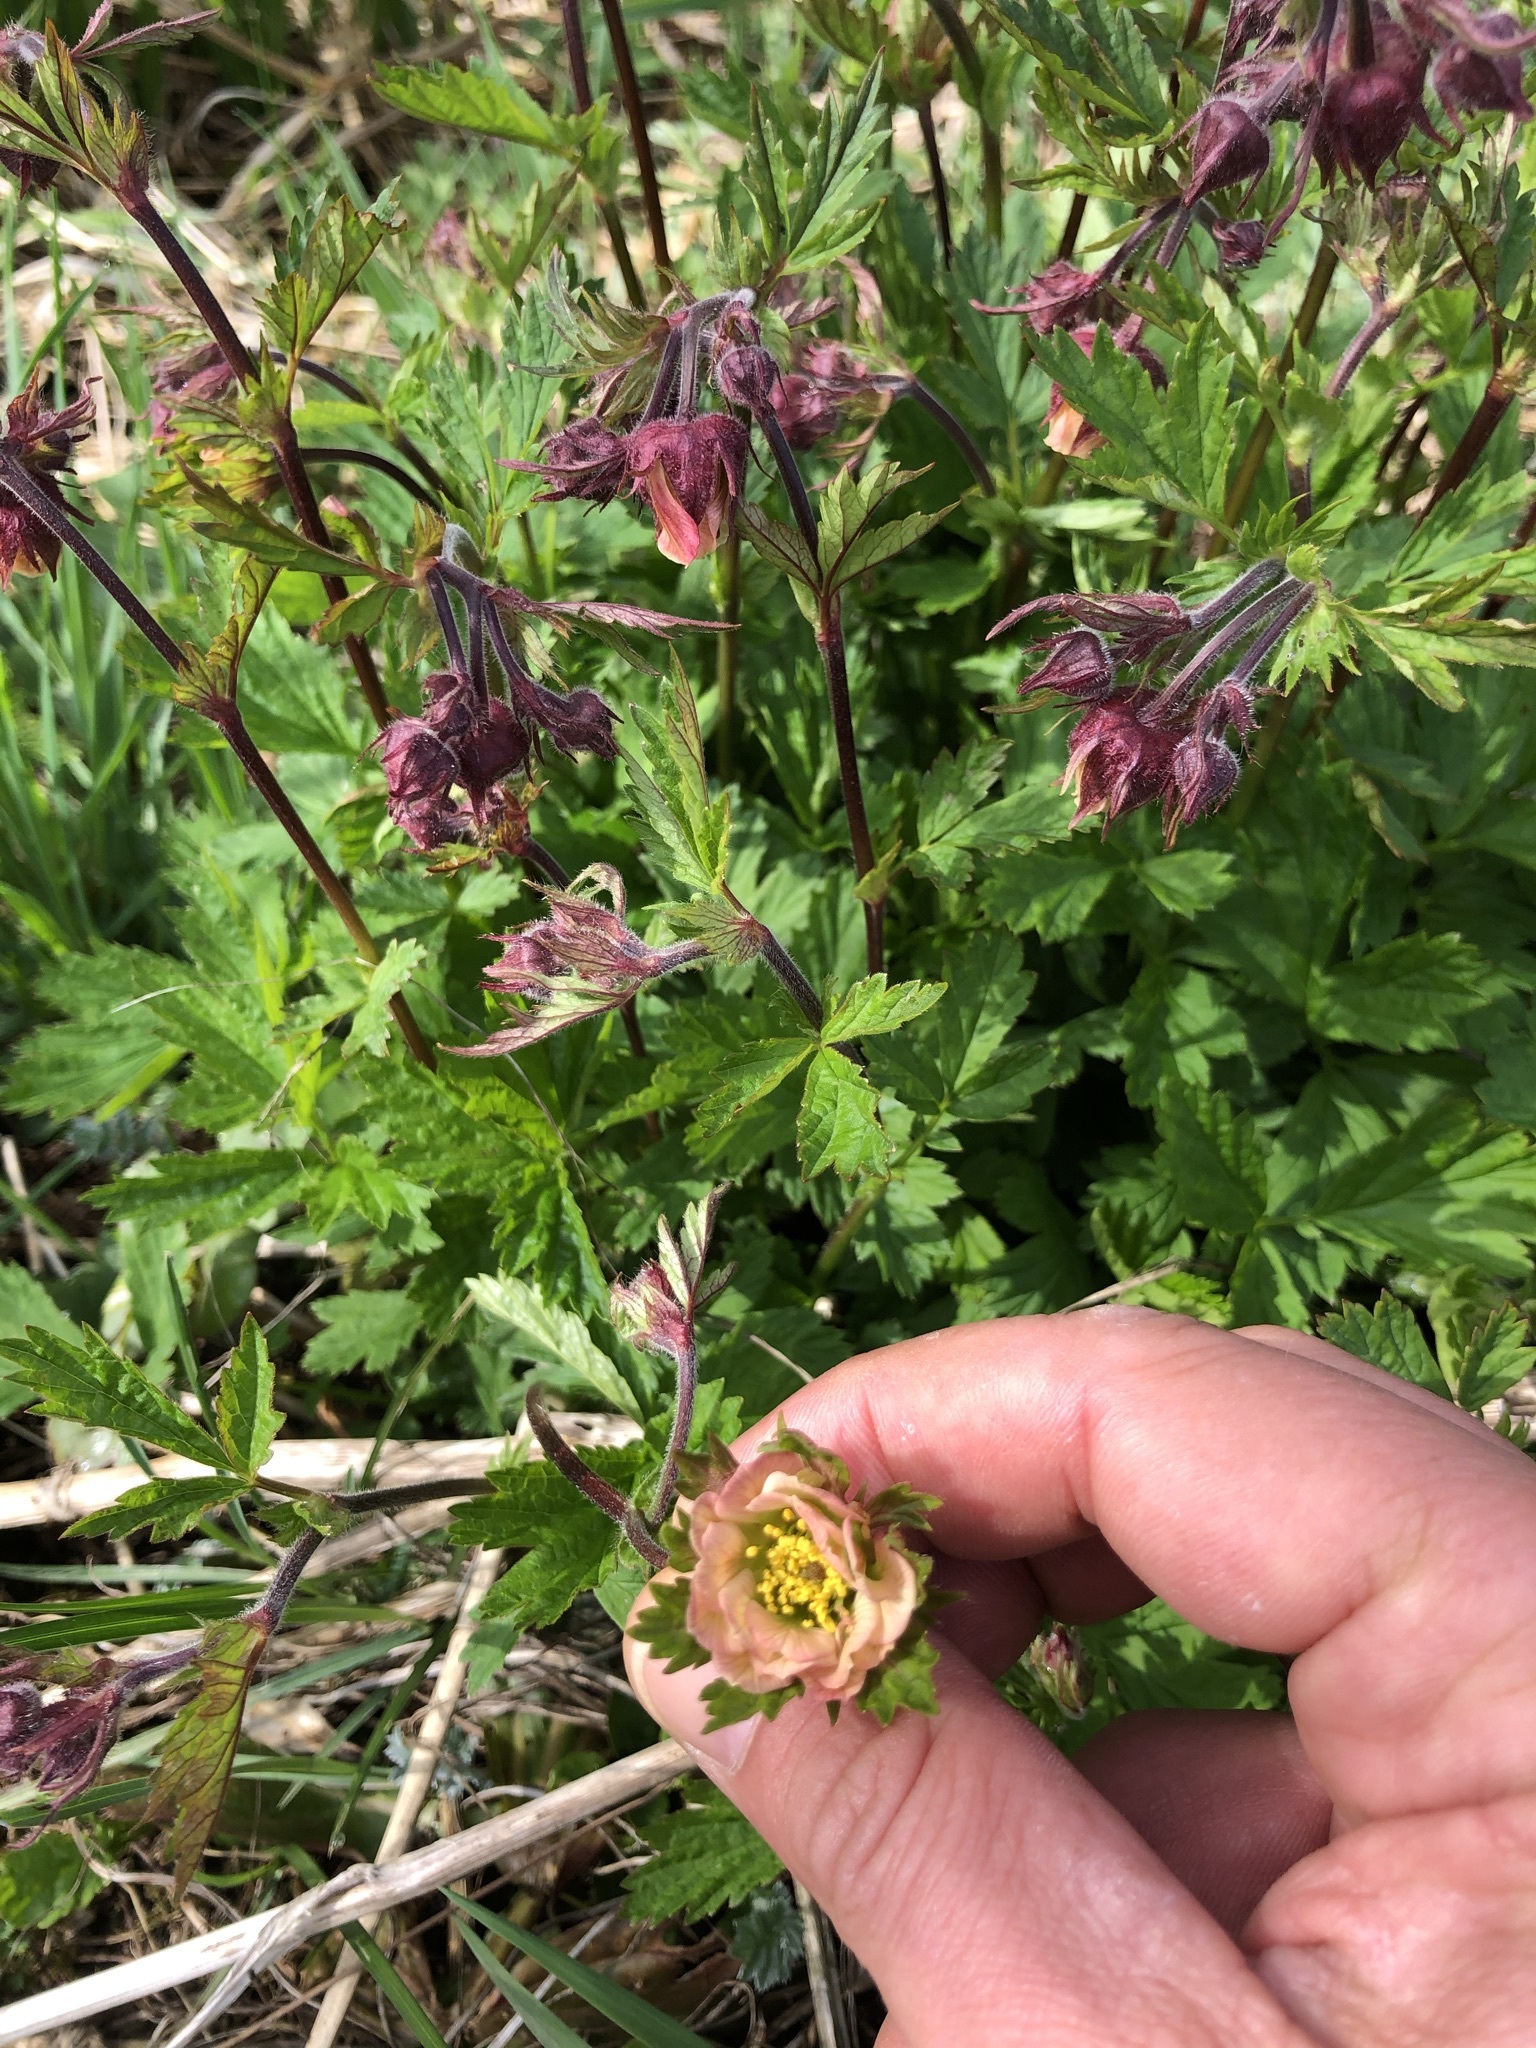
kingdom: Plantae
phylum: Tracheophyta
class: Magnoliopsida
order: Rosales
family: Rosaceae
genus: Geum
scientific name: Geum rivale
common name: Water avens
